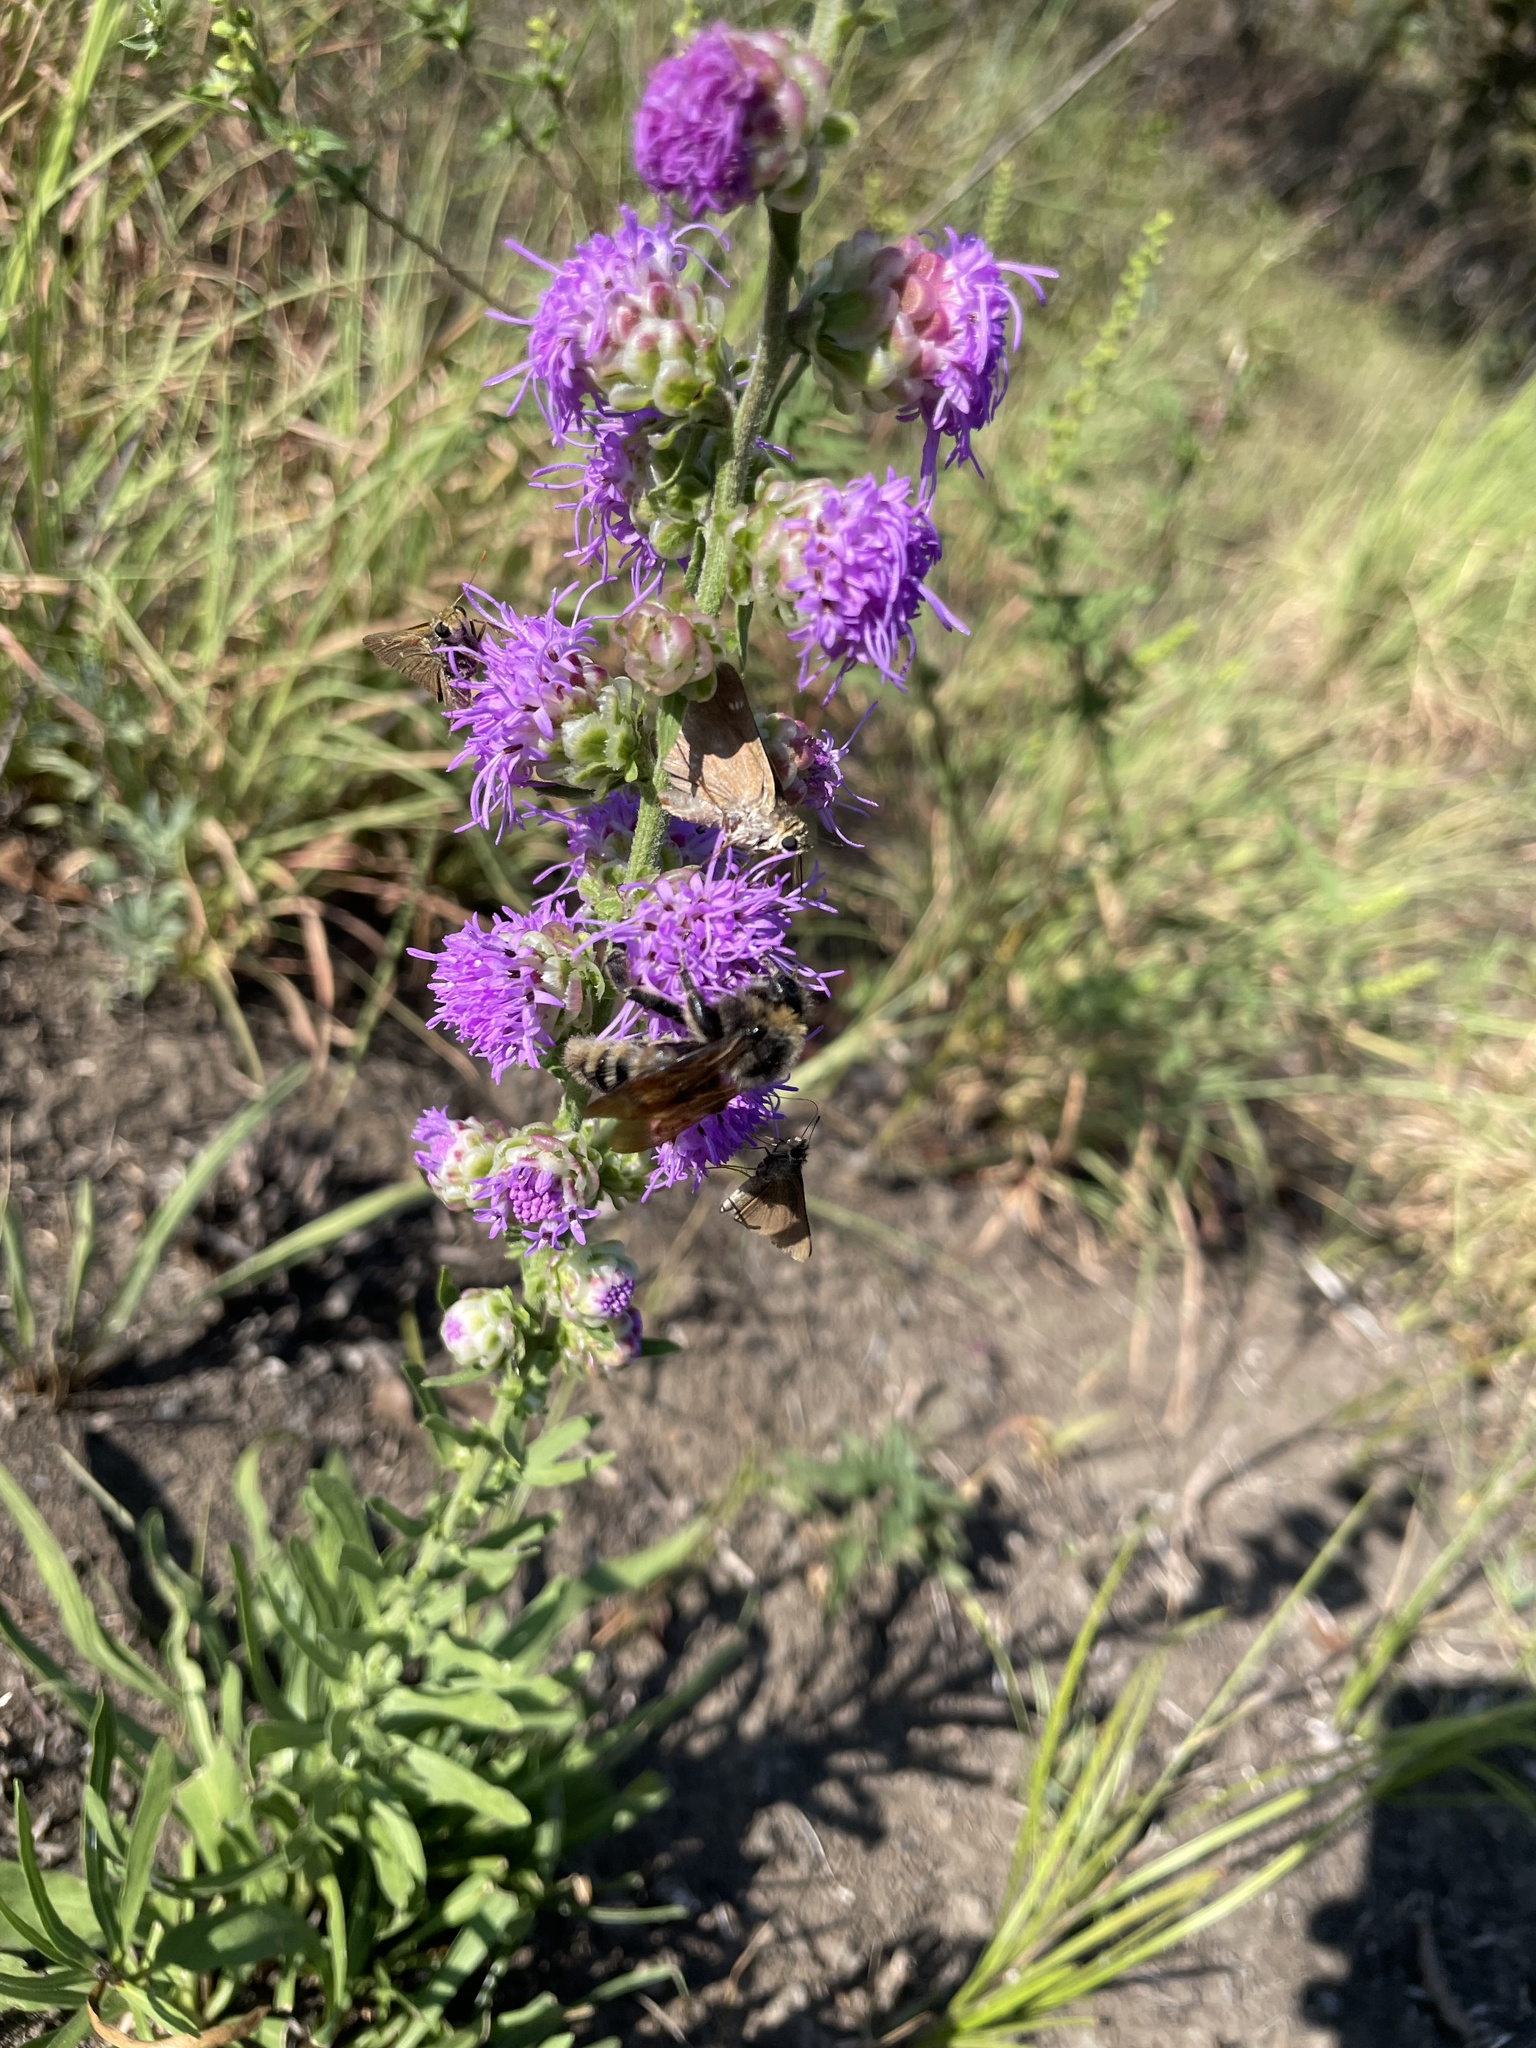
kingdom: Animalia
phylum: Arthropoda
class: Insecta
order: Hymenoptera
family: Apidae
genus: Bombus
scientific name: Bombus pensylvanicus
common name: Bumble bee
